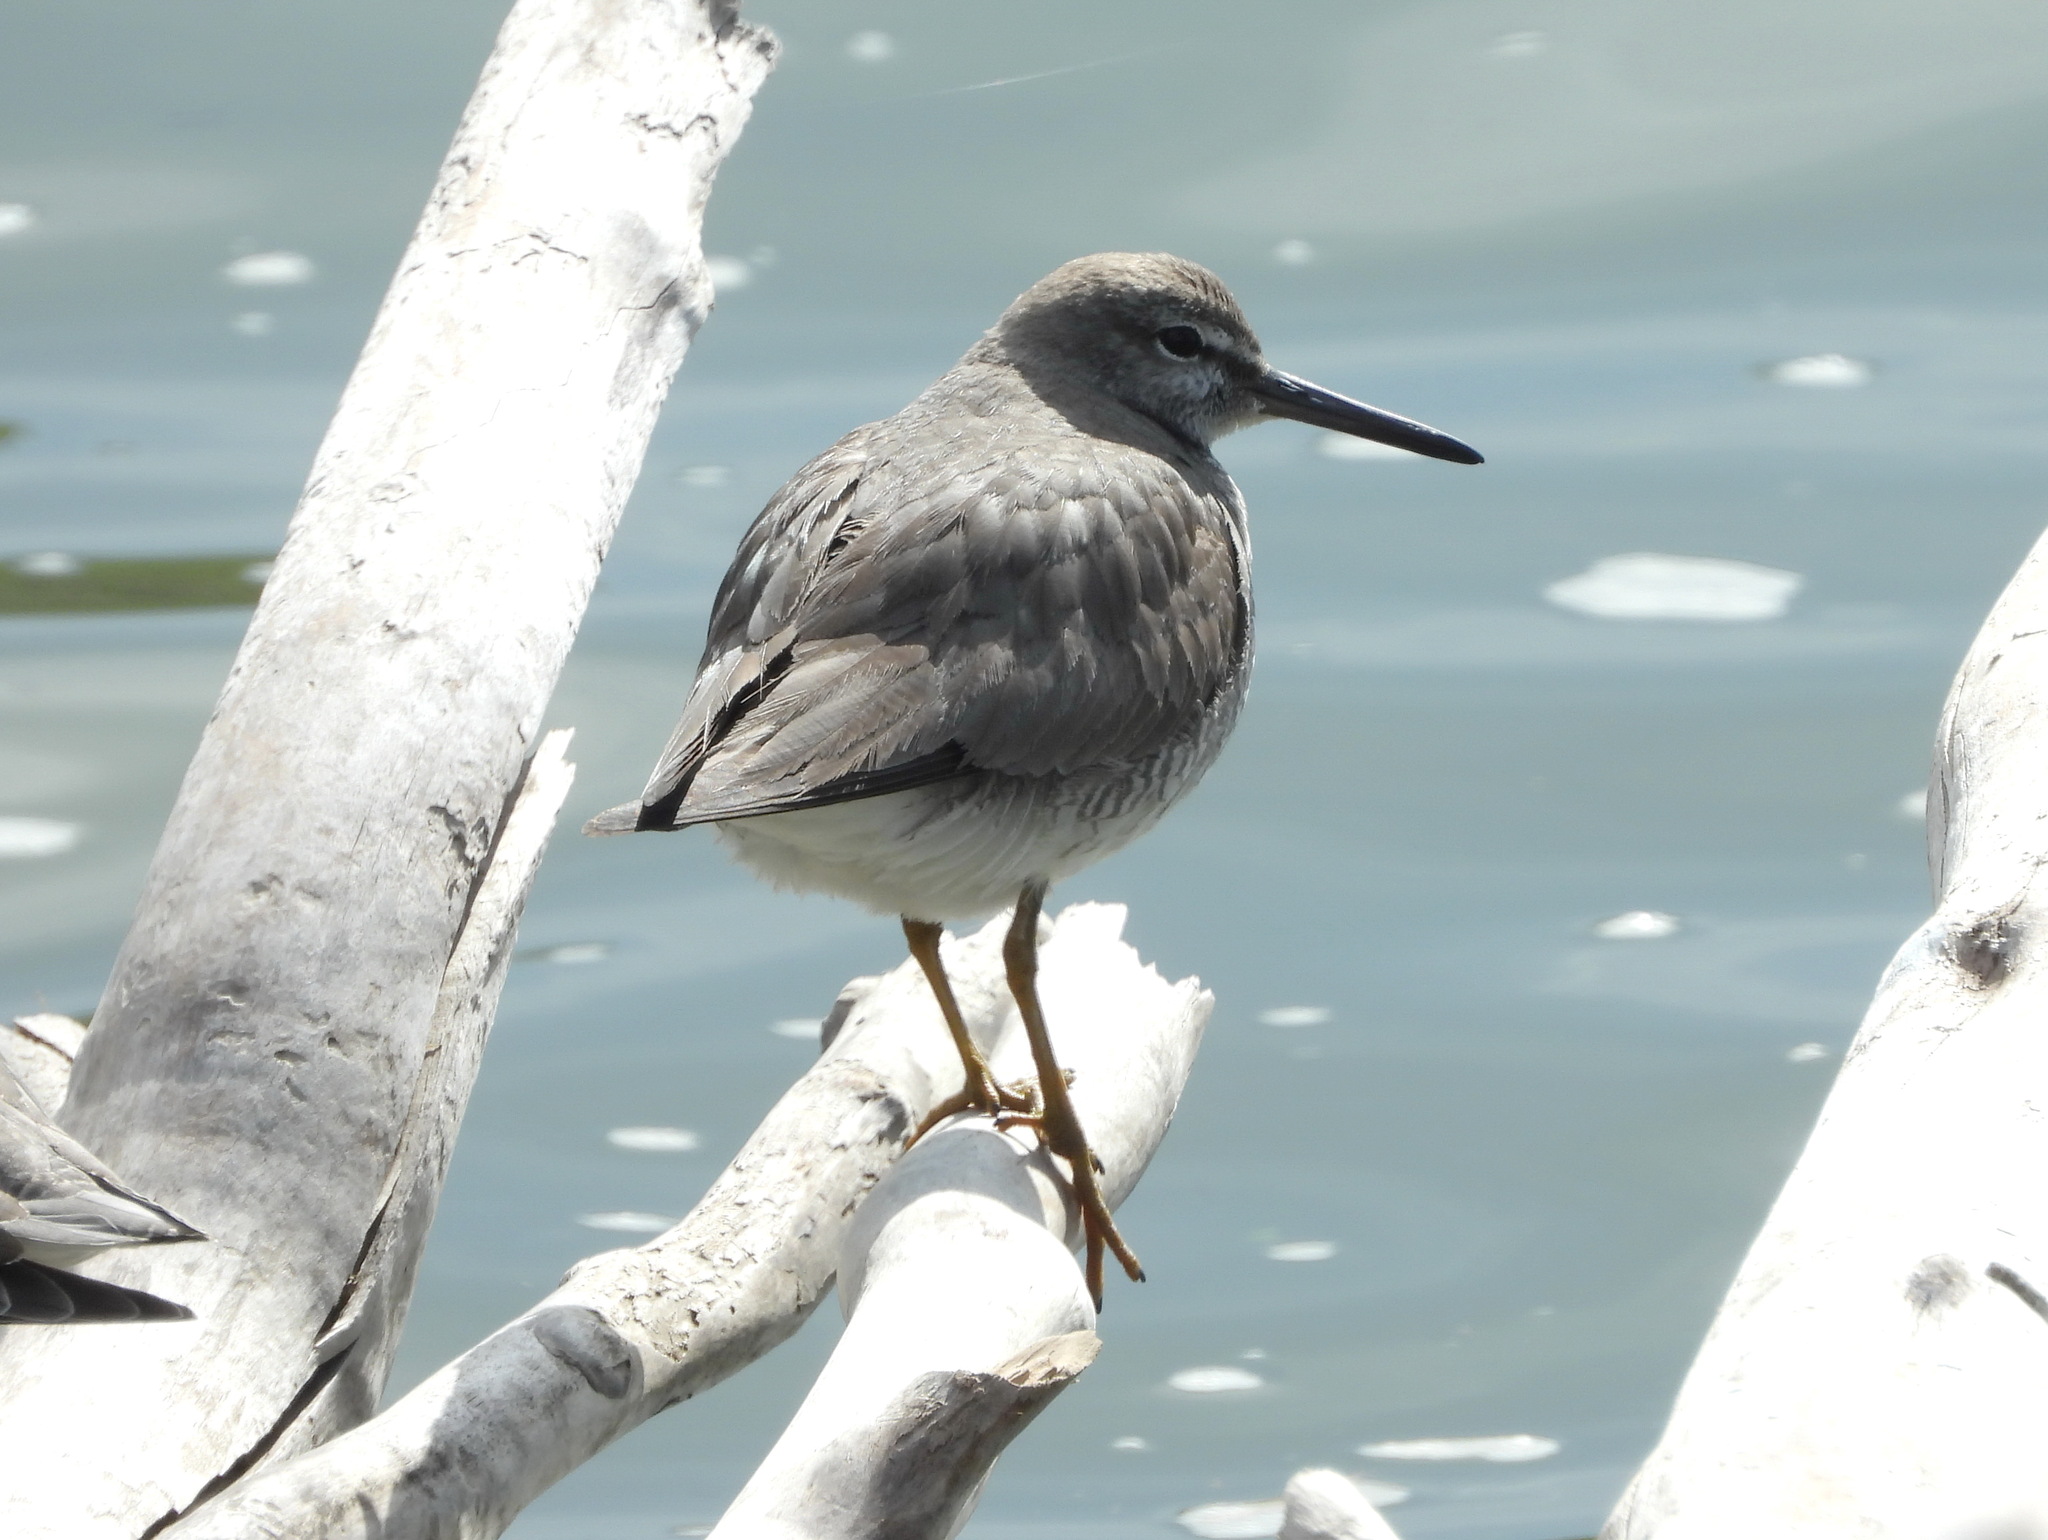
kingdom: Animalia
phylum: Chordata
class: Aves
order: Charadriiformes
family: Scolopacidae
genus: Tringa
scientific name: Tringa brevipes
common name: Grey-tailed tattler
